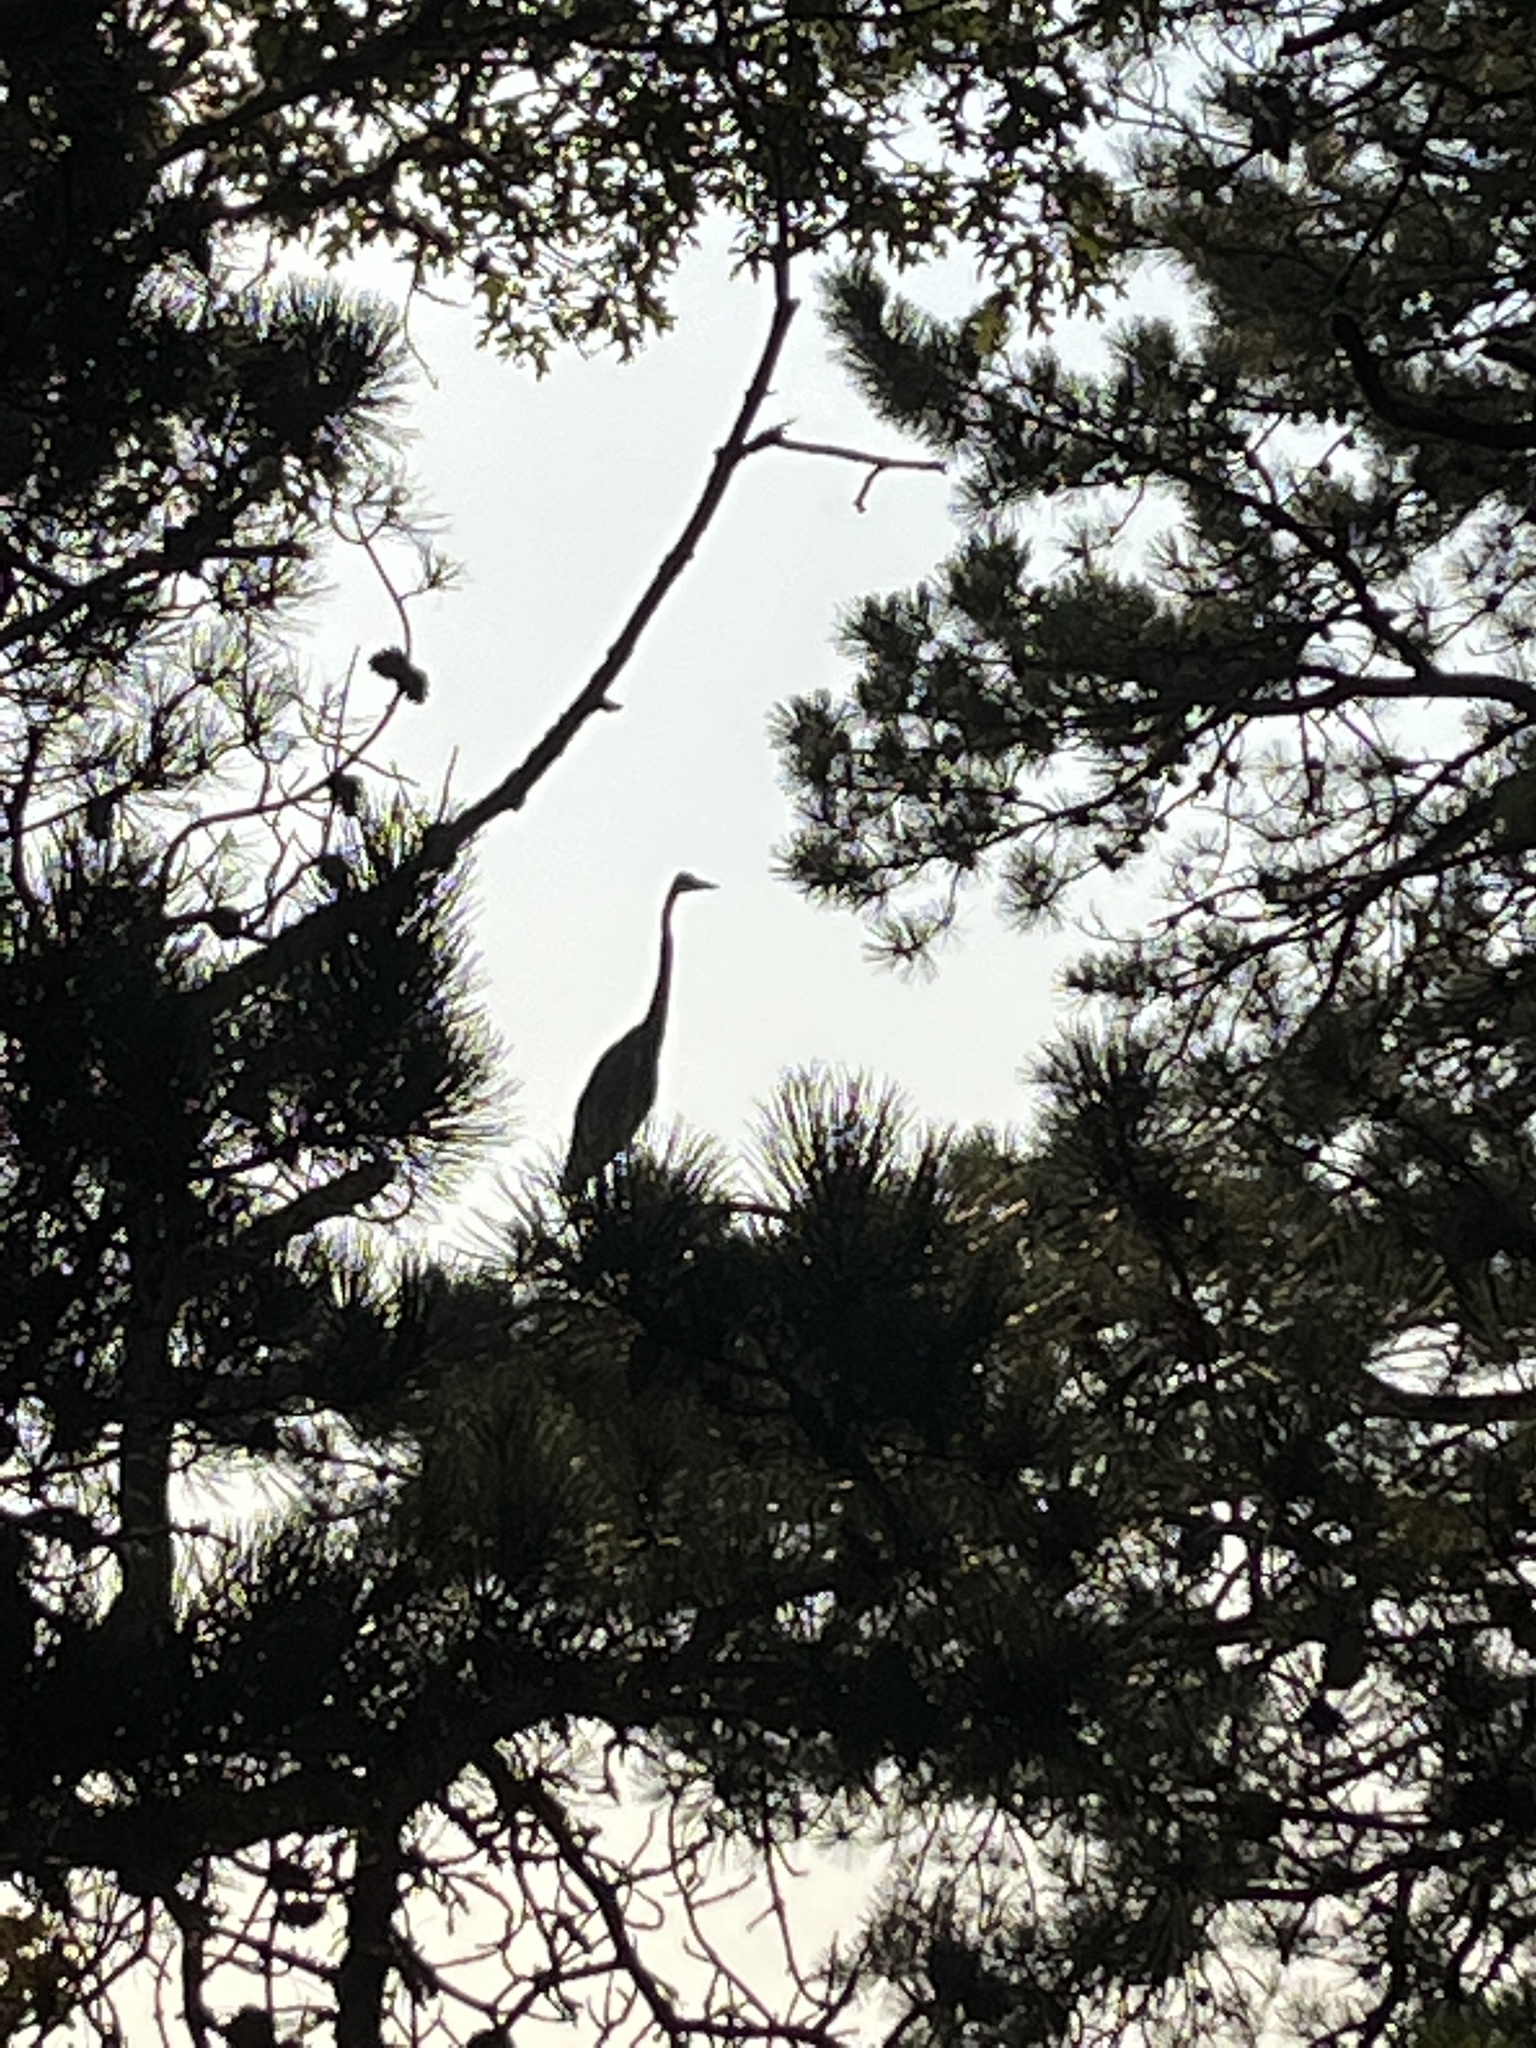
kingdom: Animalia
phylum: Chordata
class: Aves
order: Pelecaniformes
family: Ardeidae
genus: Ardea
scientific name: Ardea herodias
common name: Great blue heron
